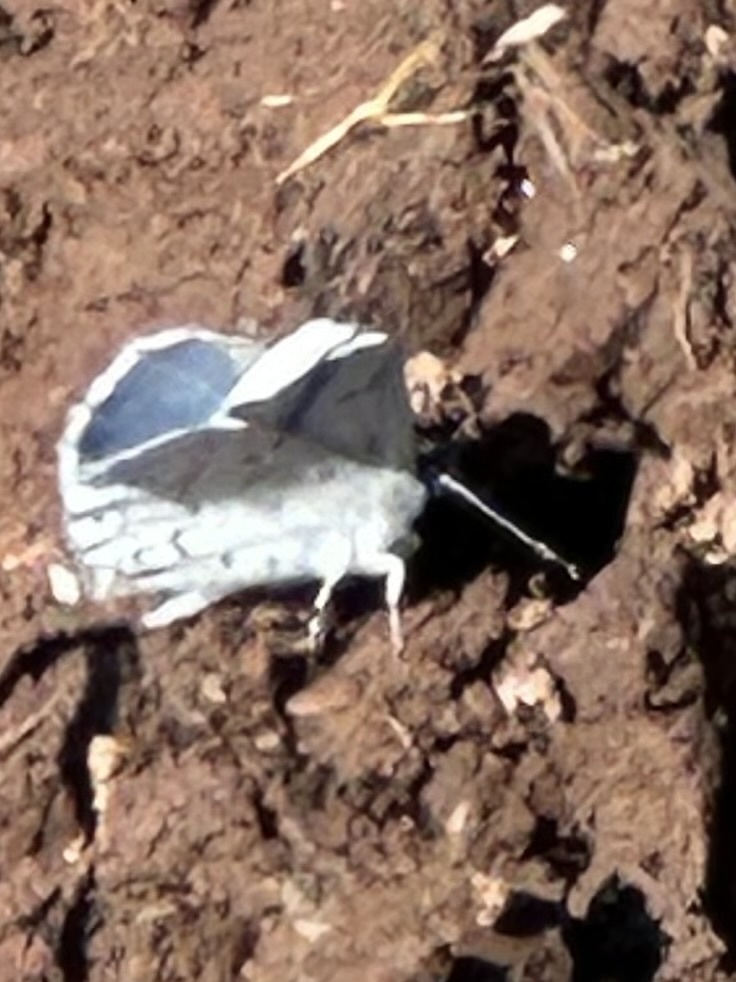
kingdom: Animalia
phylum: Arthropoda
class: Insecta
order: Lepidoptera
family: Lycaenidae
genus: Celastrina
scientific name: Celastrina ladon
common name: Spring azure
